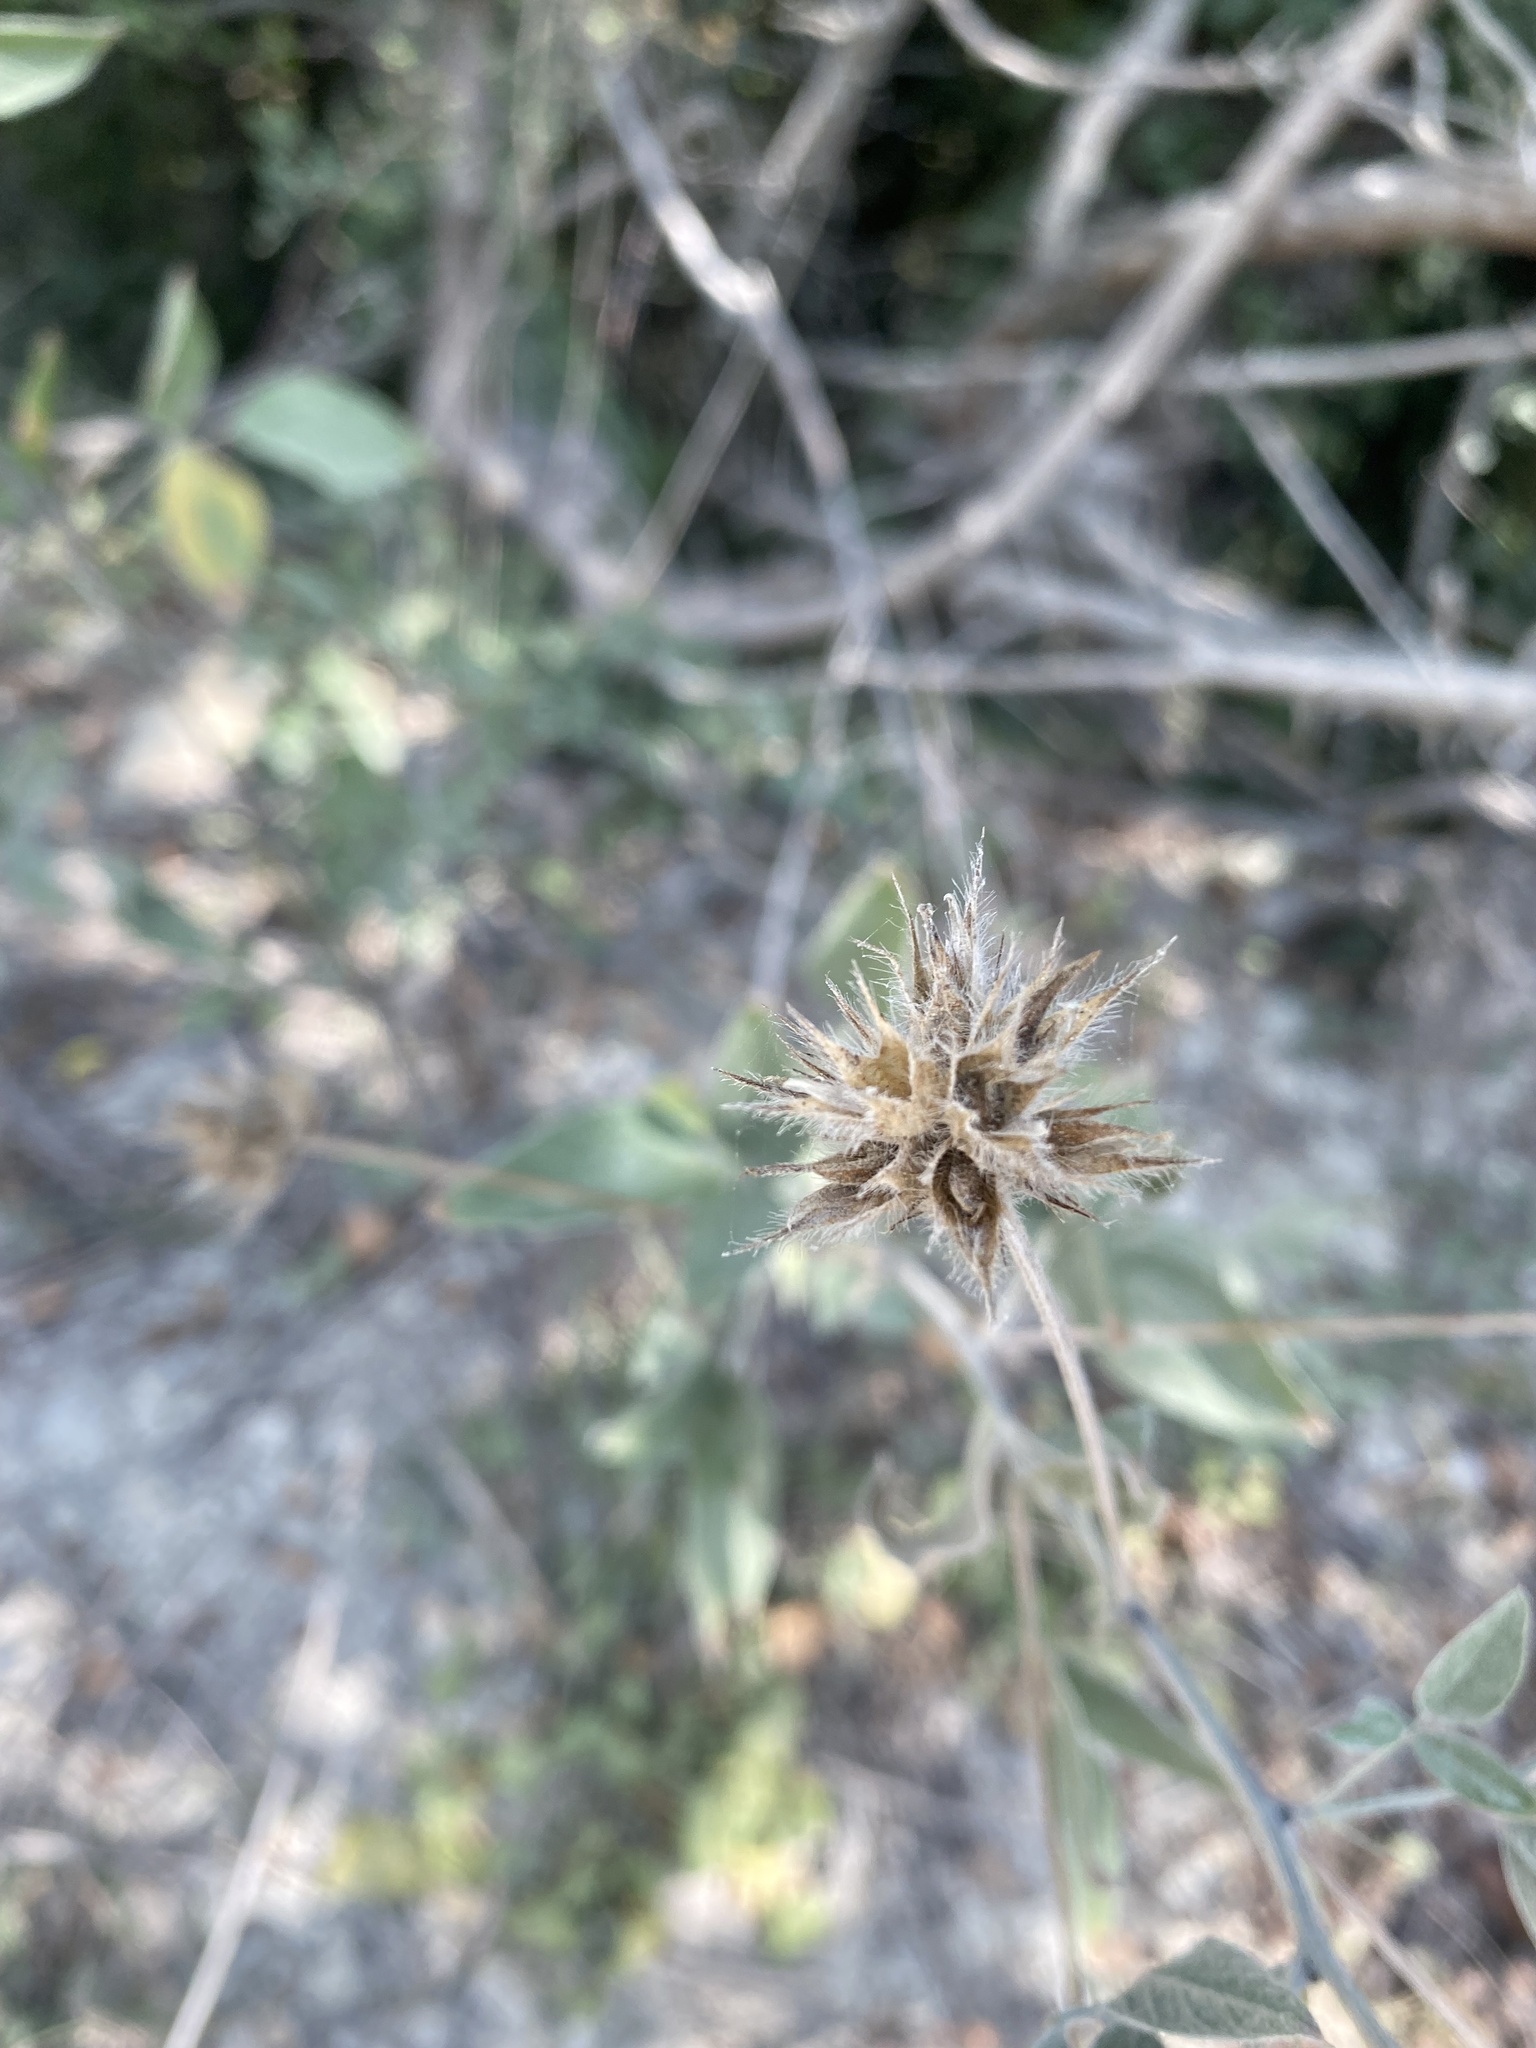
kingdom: Plantae
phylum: Tracheophyta
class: Magnoliopsida
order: Fabales
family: Fabaceae
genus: Bituminaria
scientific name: Bituminaria bituminosa
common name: Arabian pea
